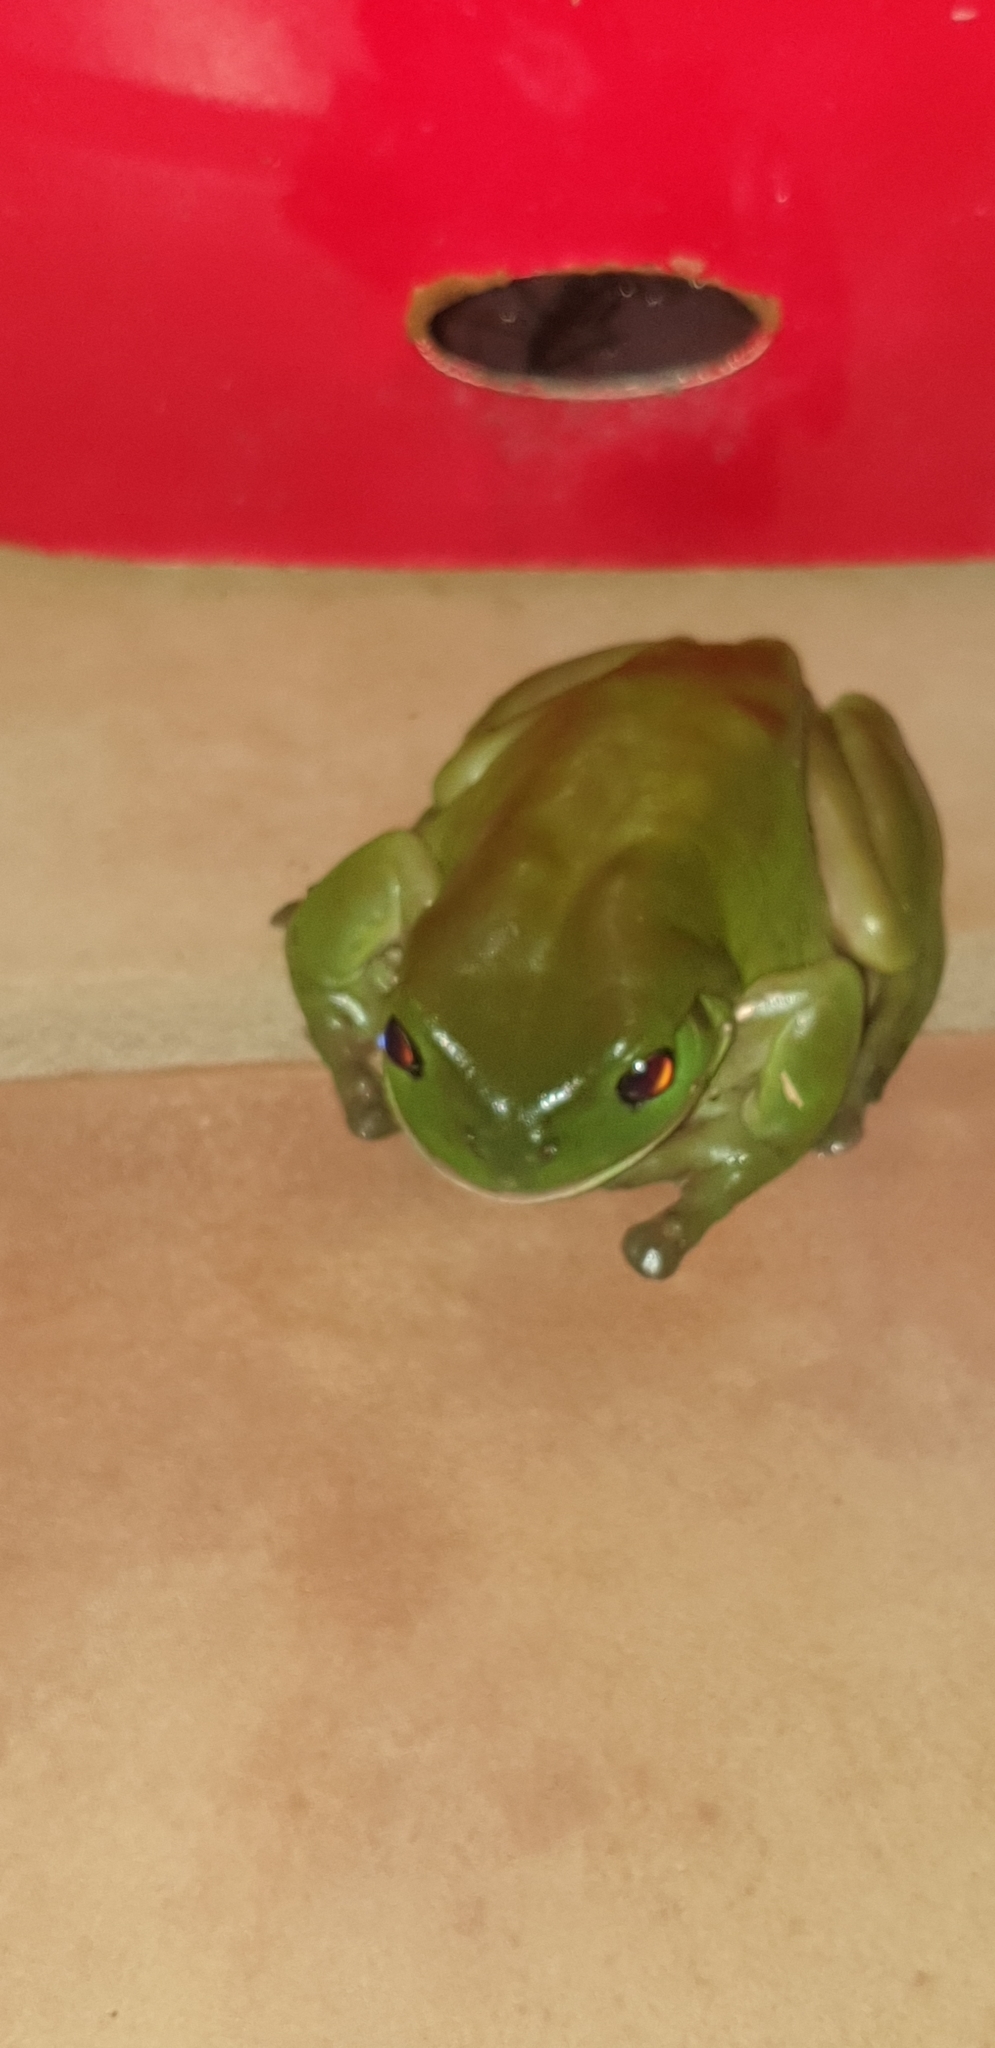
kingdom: Animalia
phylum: Chordata
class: Amphibia
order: Anura
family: Pelodryadidae
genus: Ranoidea
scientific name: Ranoidea caerulea
